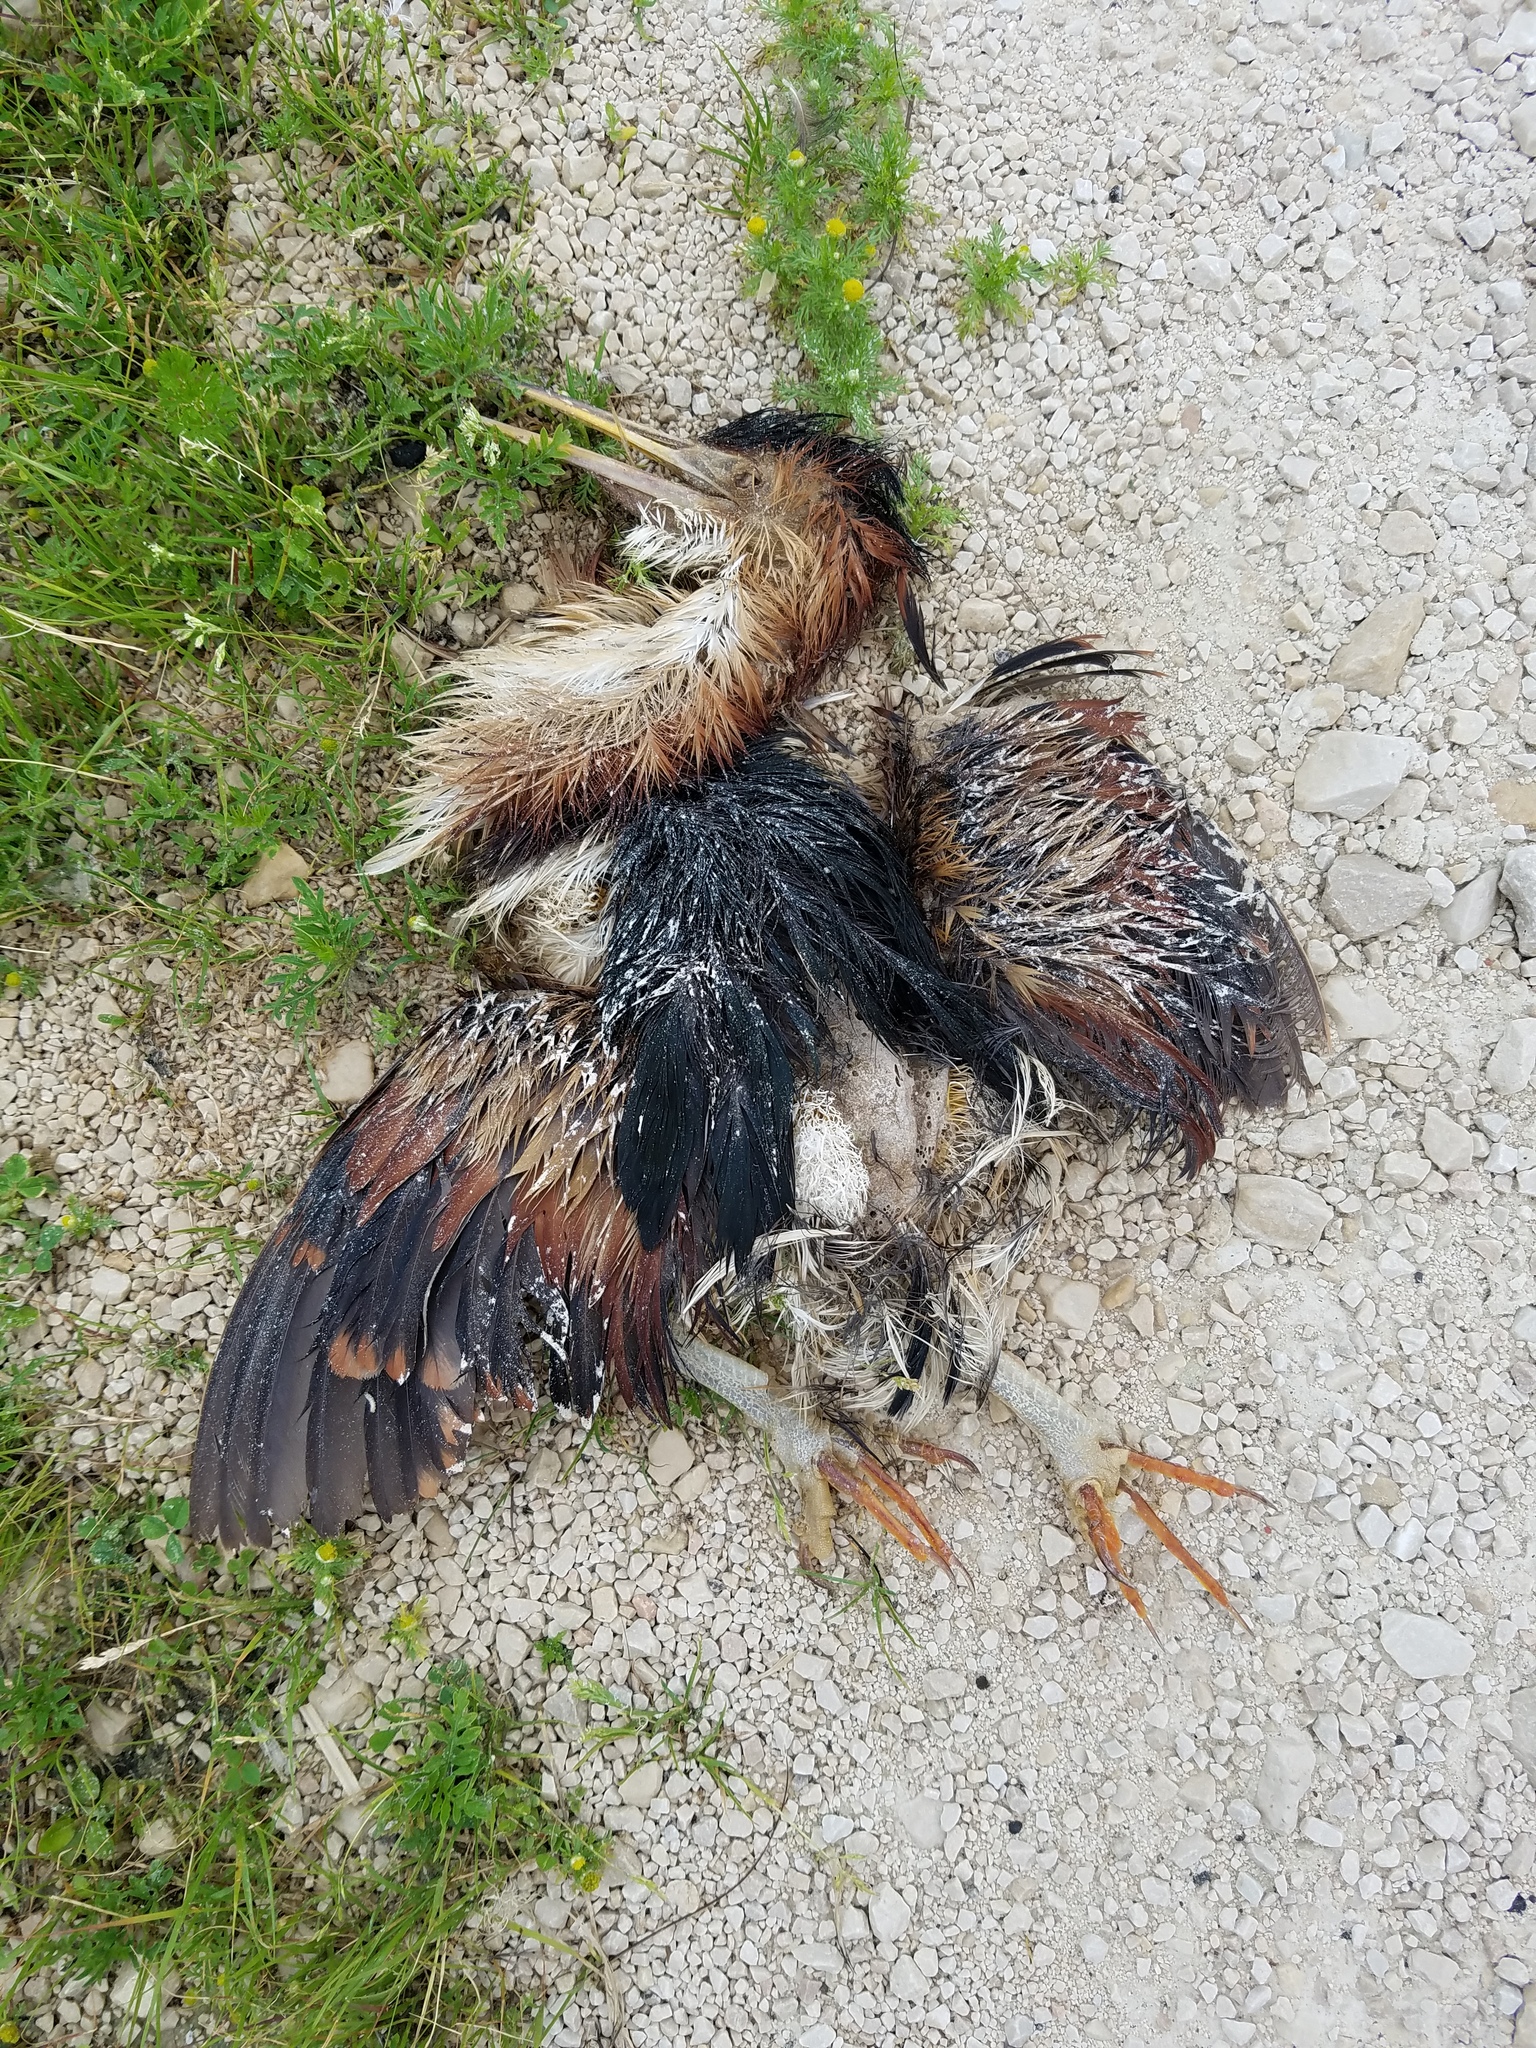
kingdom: Animalia
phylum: Chordata
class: Aves
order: Pelecaniformes
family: Ardeidae
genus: Ixobrychus
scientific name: Ixobrychus exilis
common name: Least bittern
